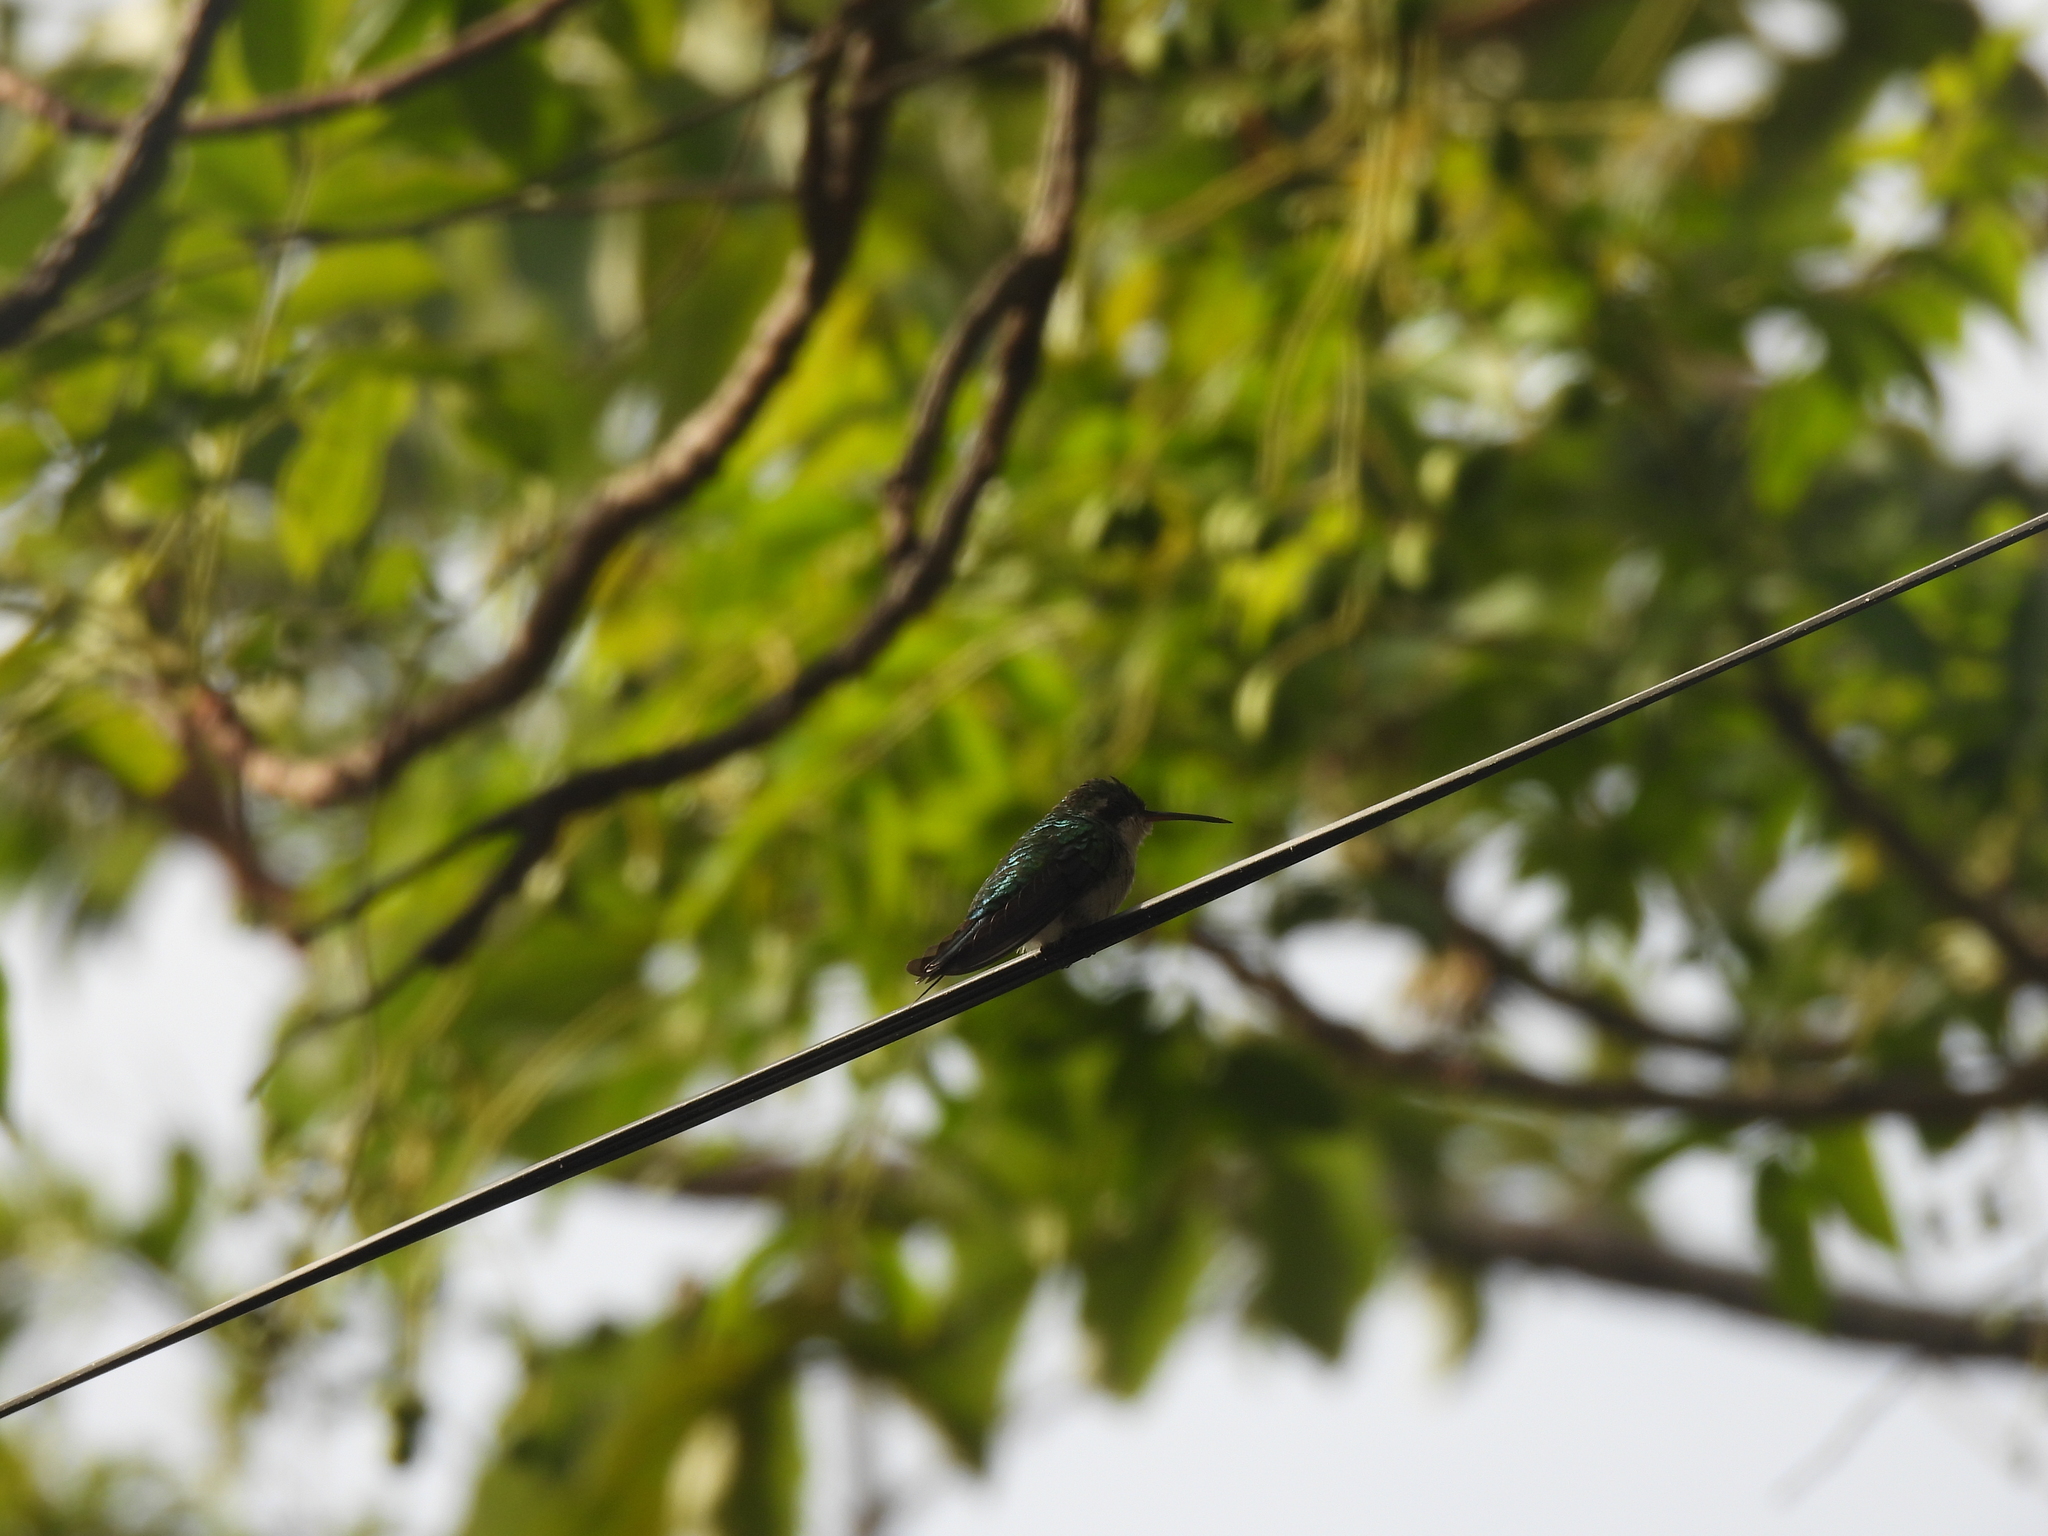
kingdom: Animalia
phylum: Chordata
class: Aves
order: Apodiformes
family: Trochilidae
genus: Cynanthus
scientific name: Cynanthus canivetii
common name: Canivet's emerald
